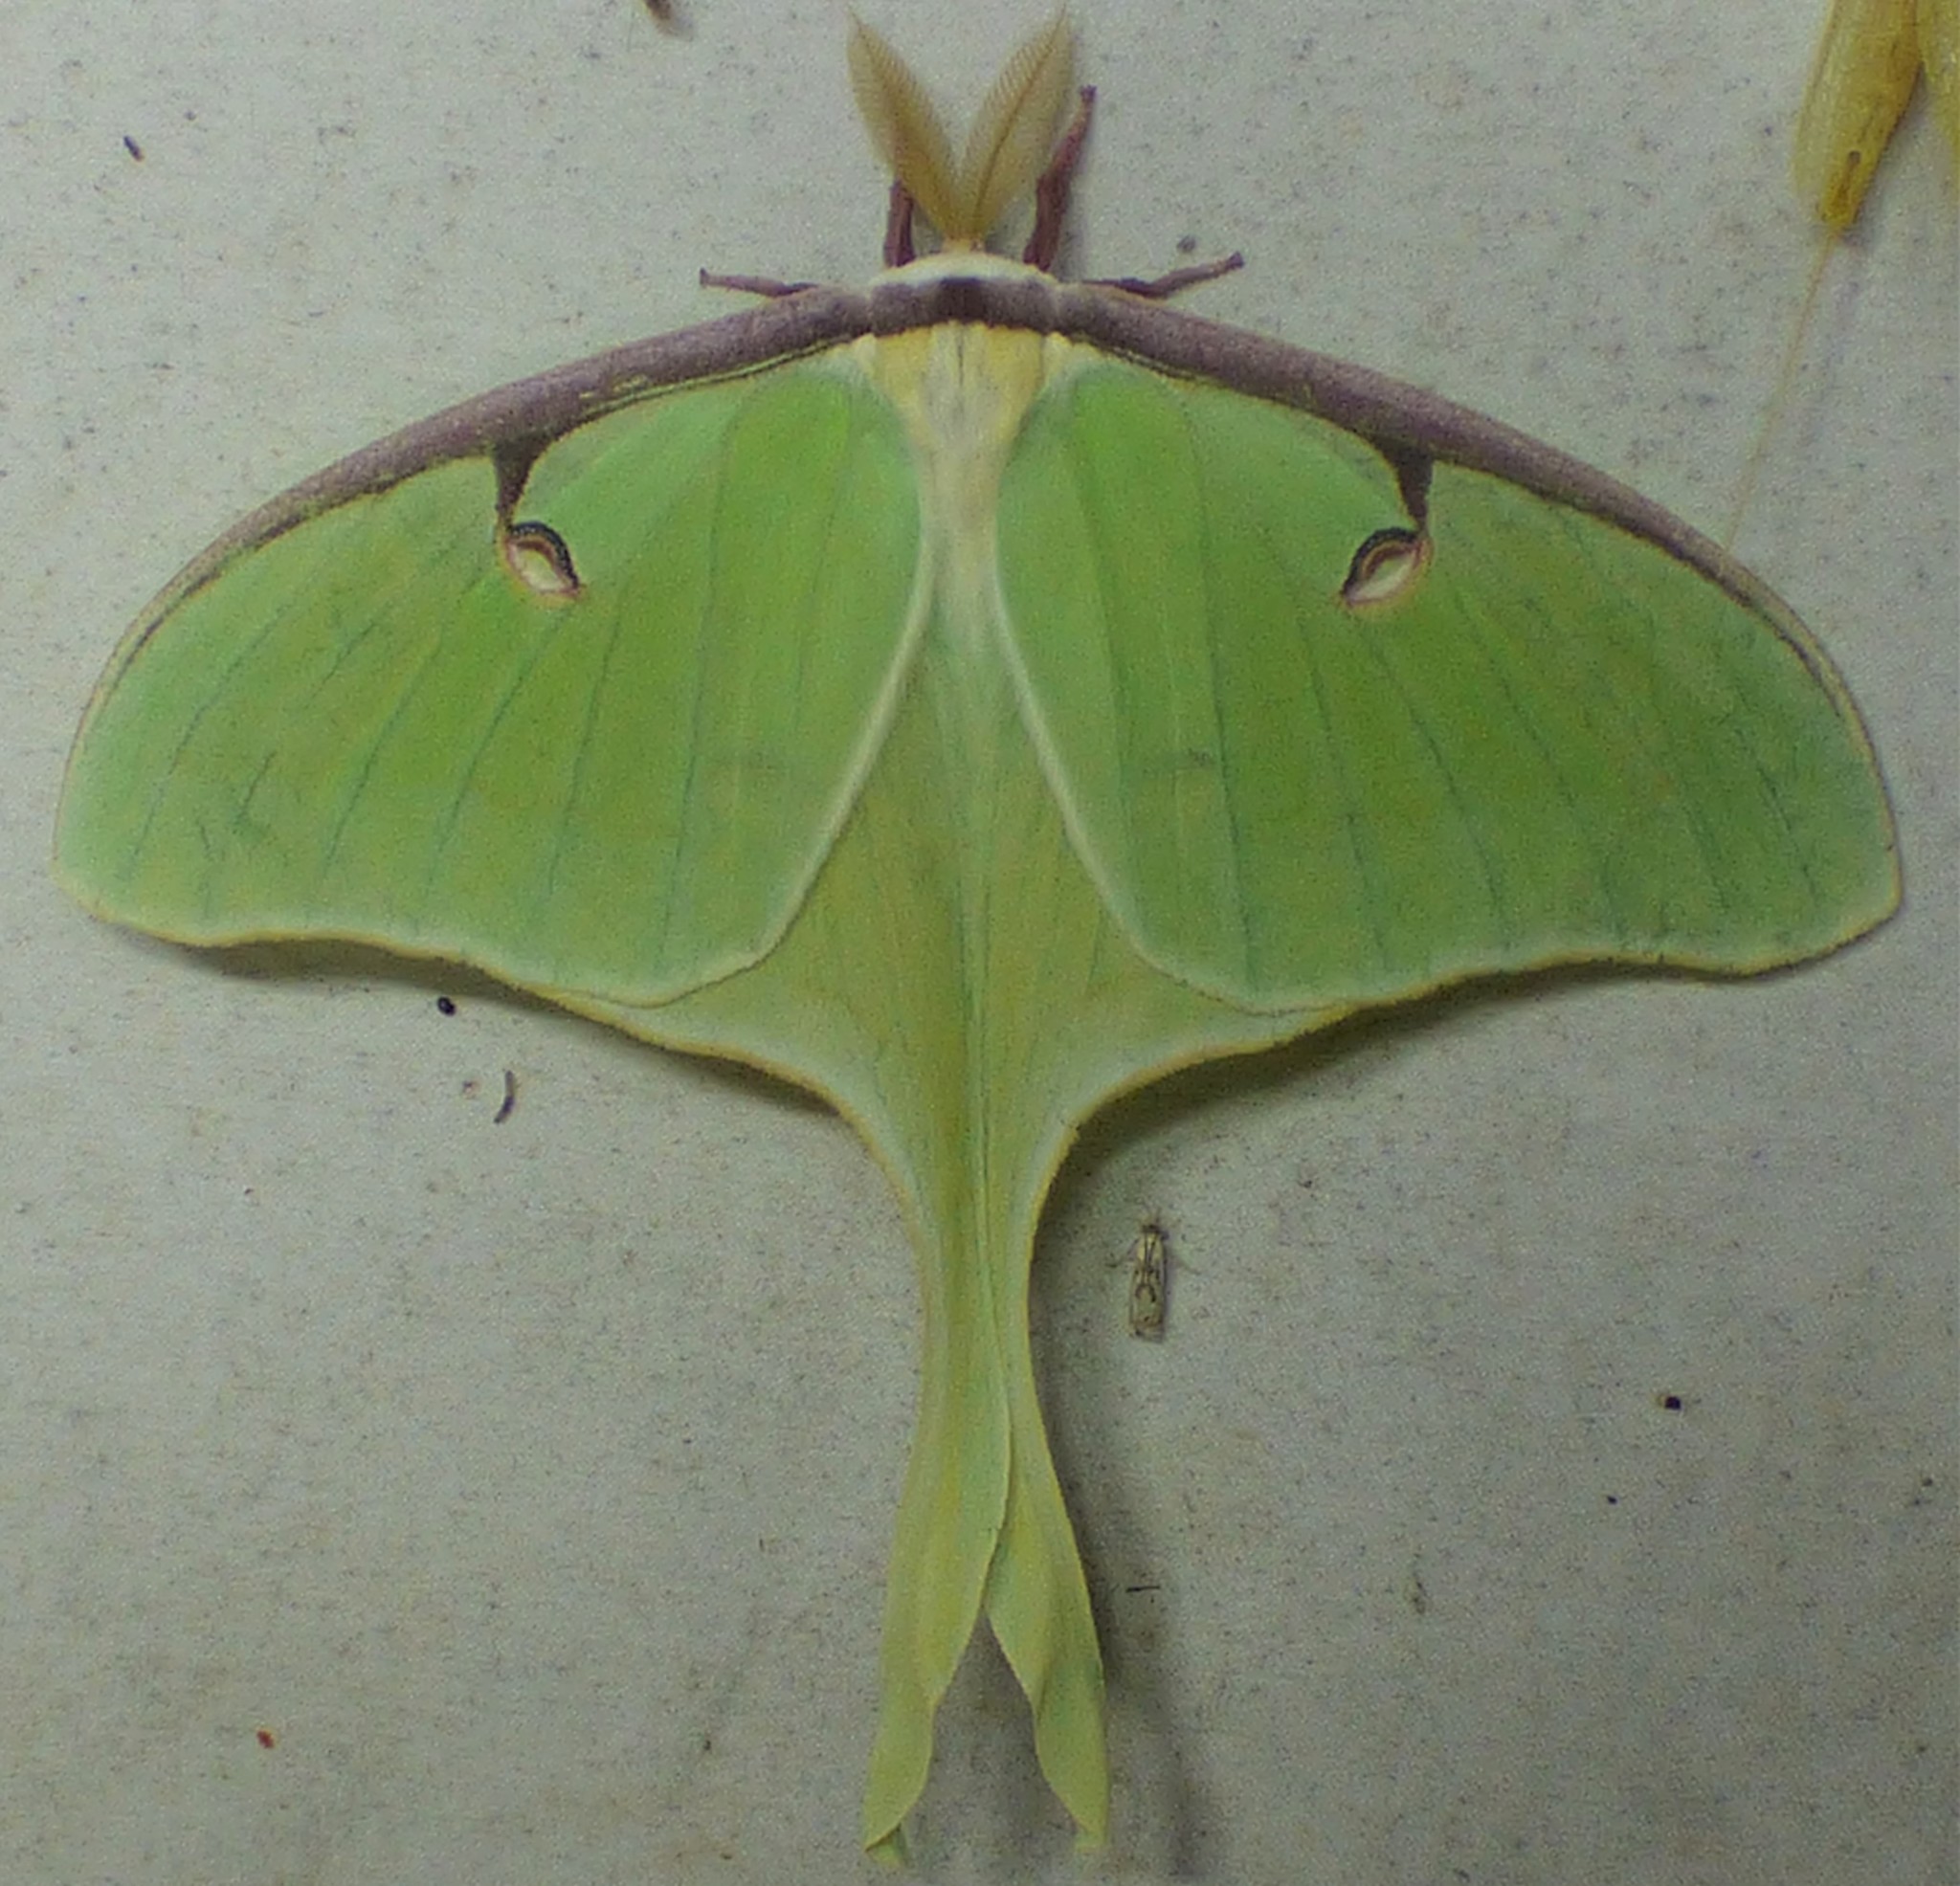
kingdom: Animalia
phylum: Arthropoda
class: Insecta
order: Lepidoptera
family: Saturniidae
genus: Actias
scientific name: Actias luna
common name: Luna moth
